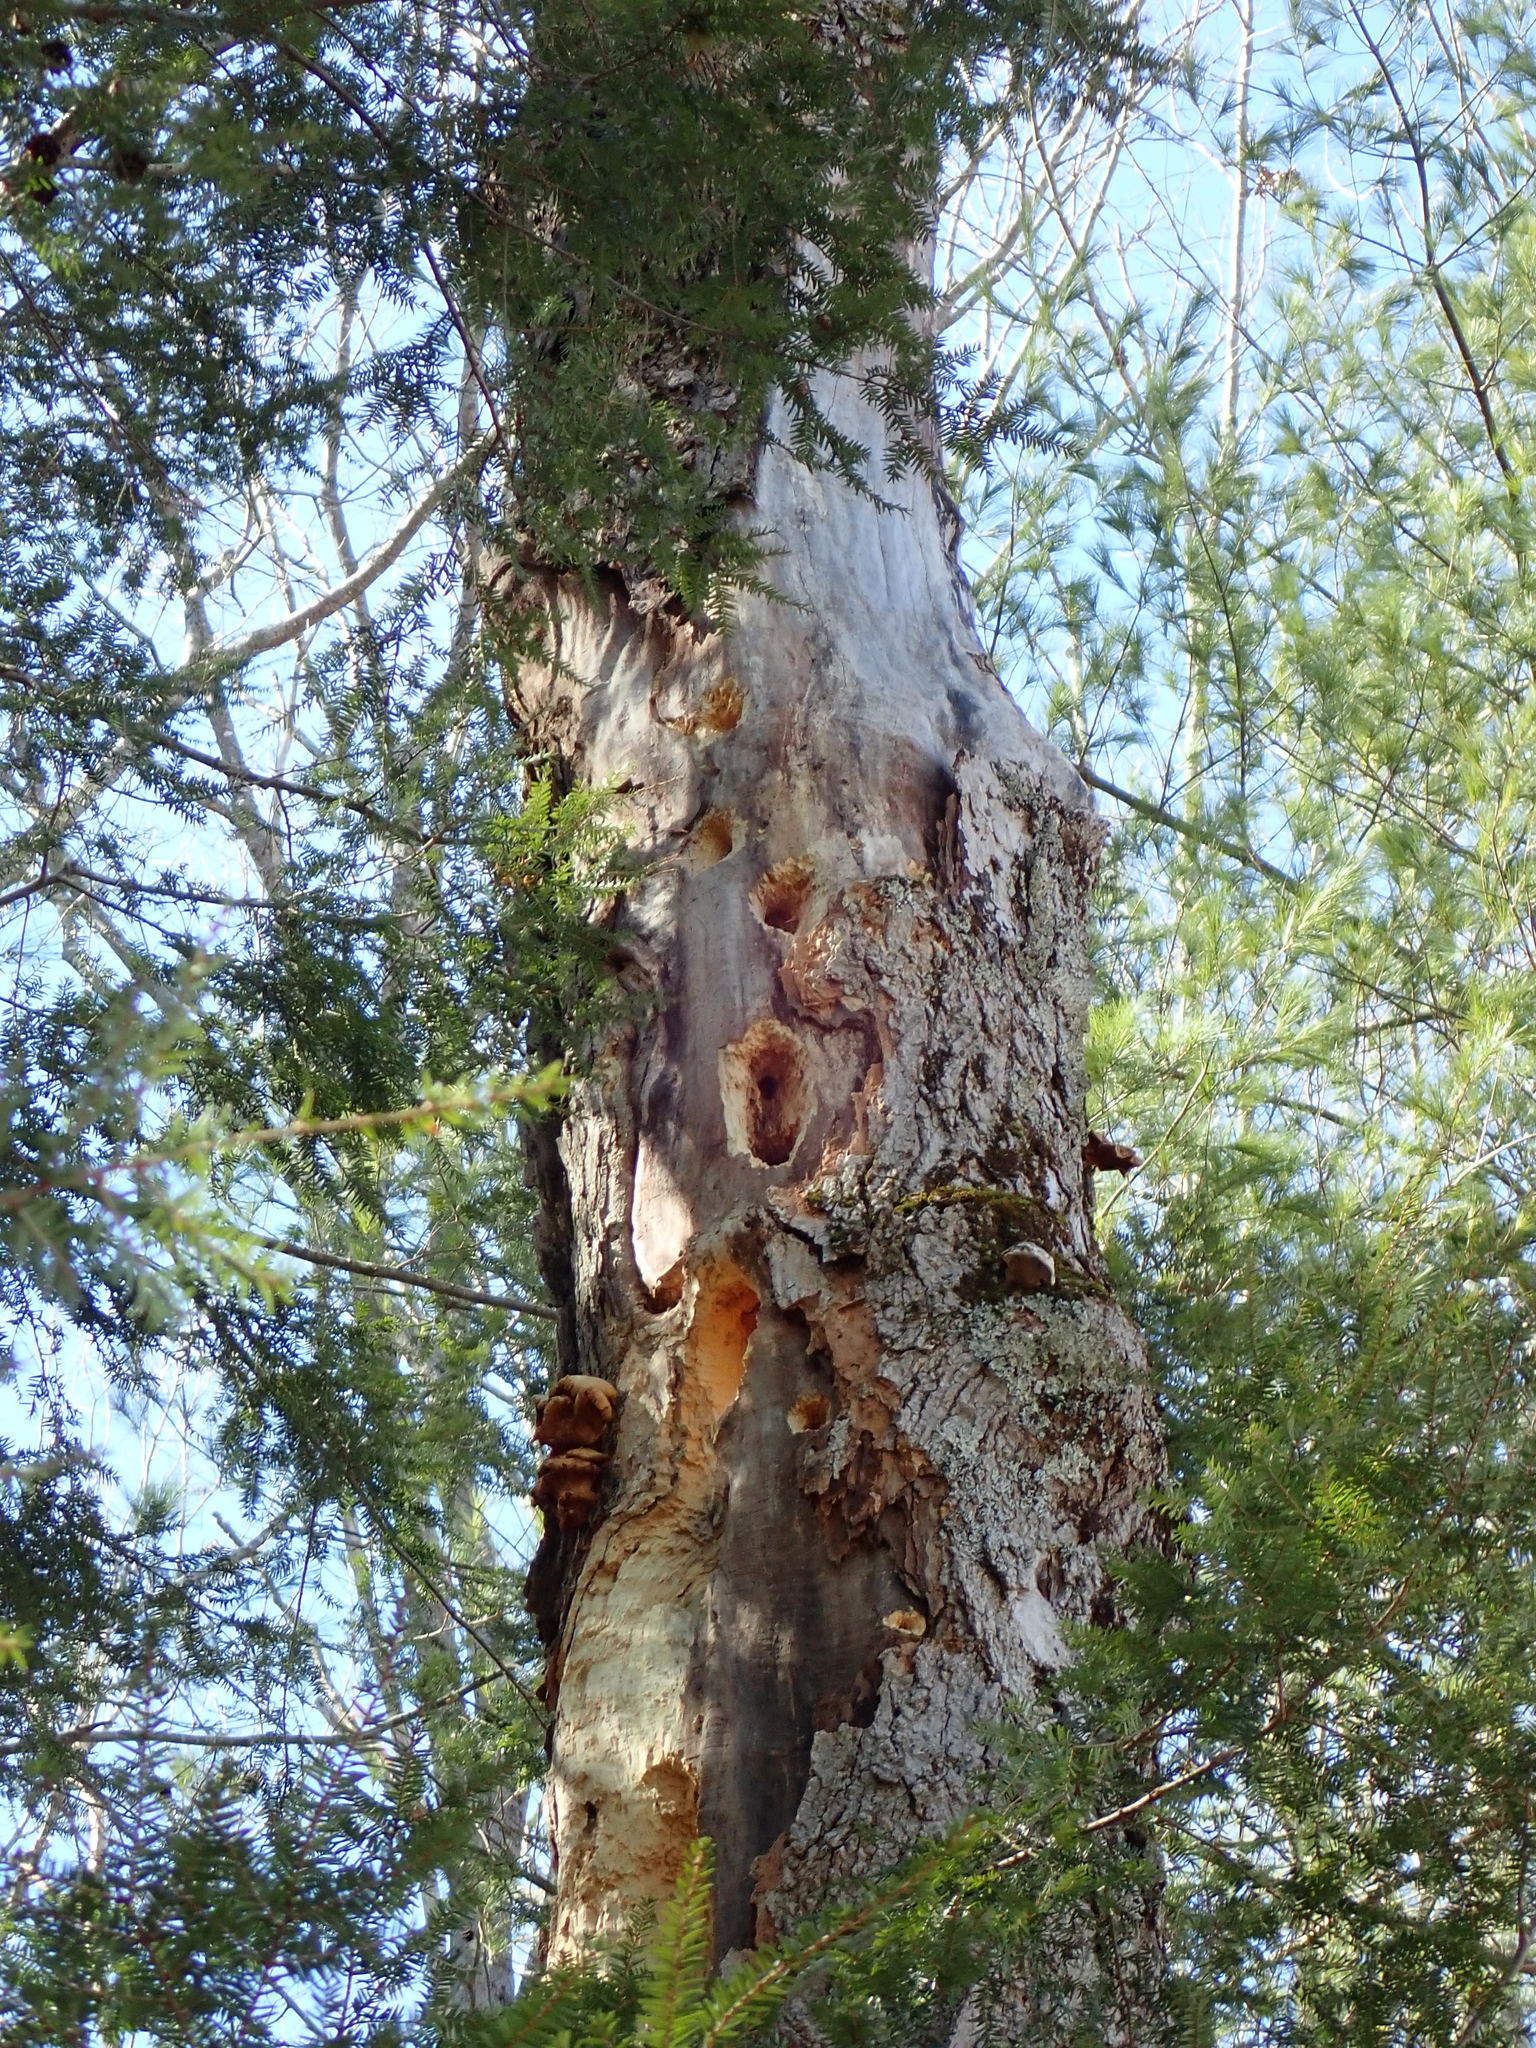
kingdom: Animalia
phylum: Chordata
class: Aves
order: Piciformes
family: Picidae
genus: Dryocopus
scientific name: Dryocopus pileatus
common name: Pileated woodpecker
